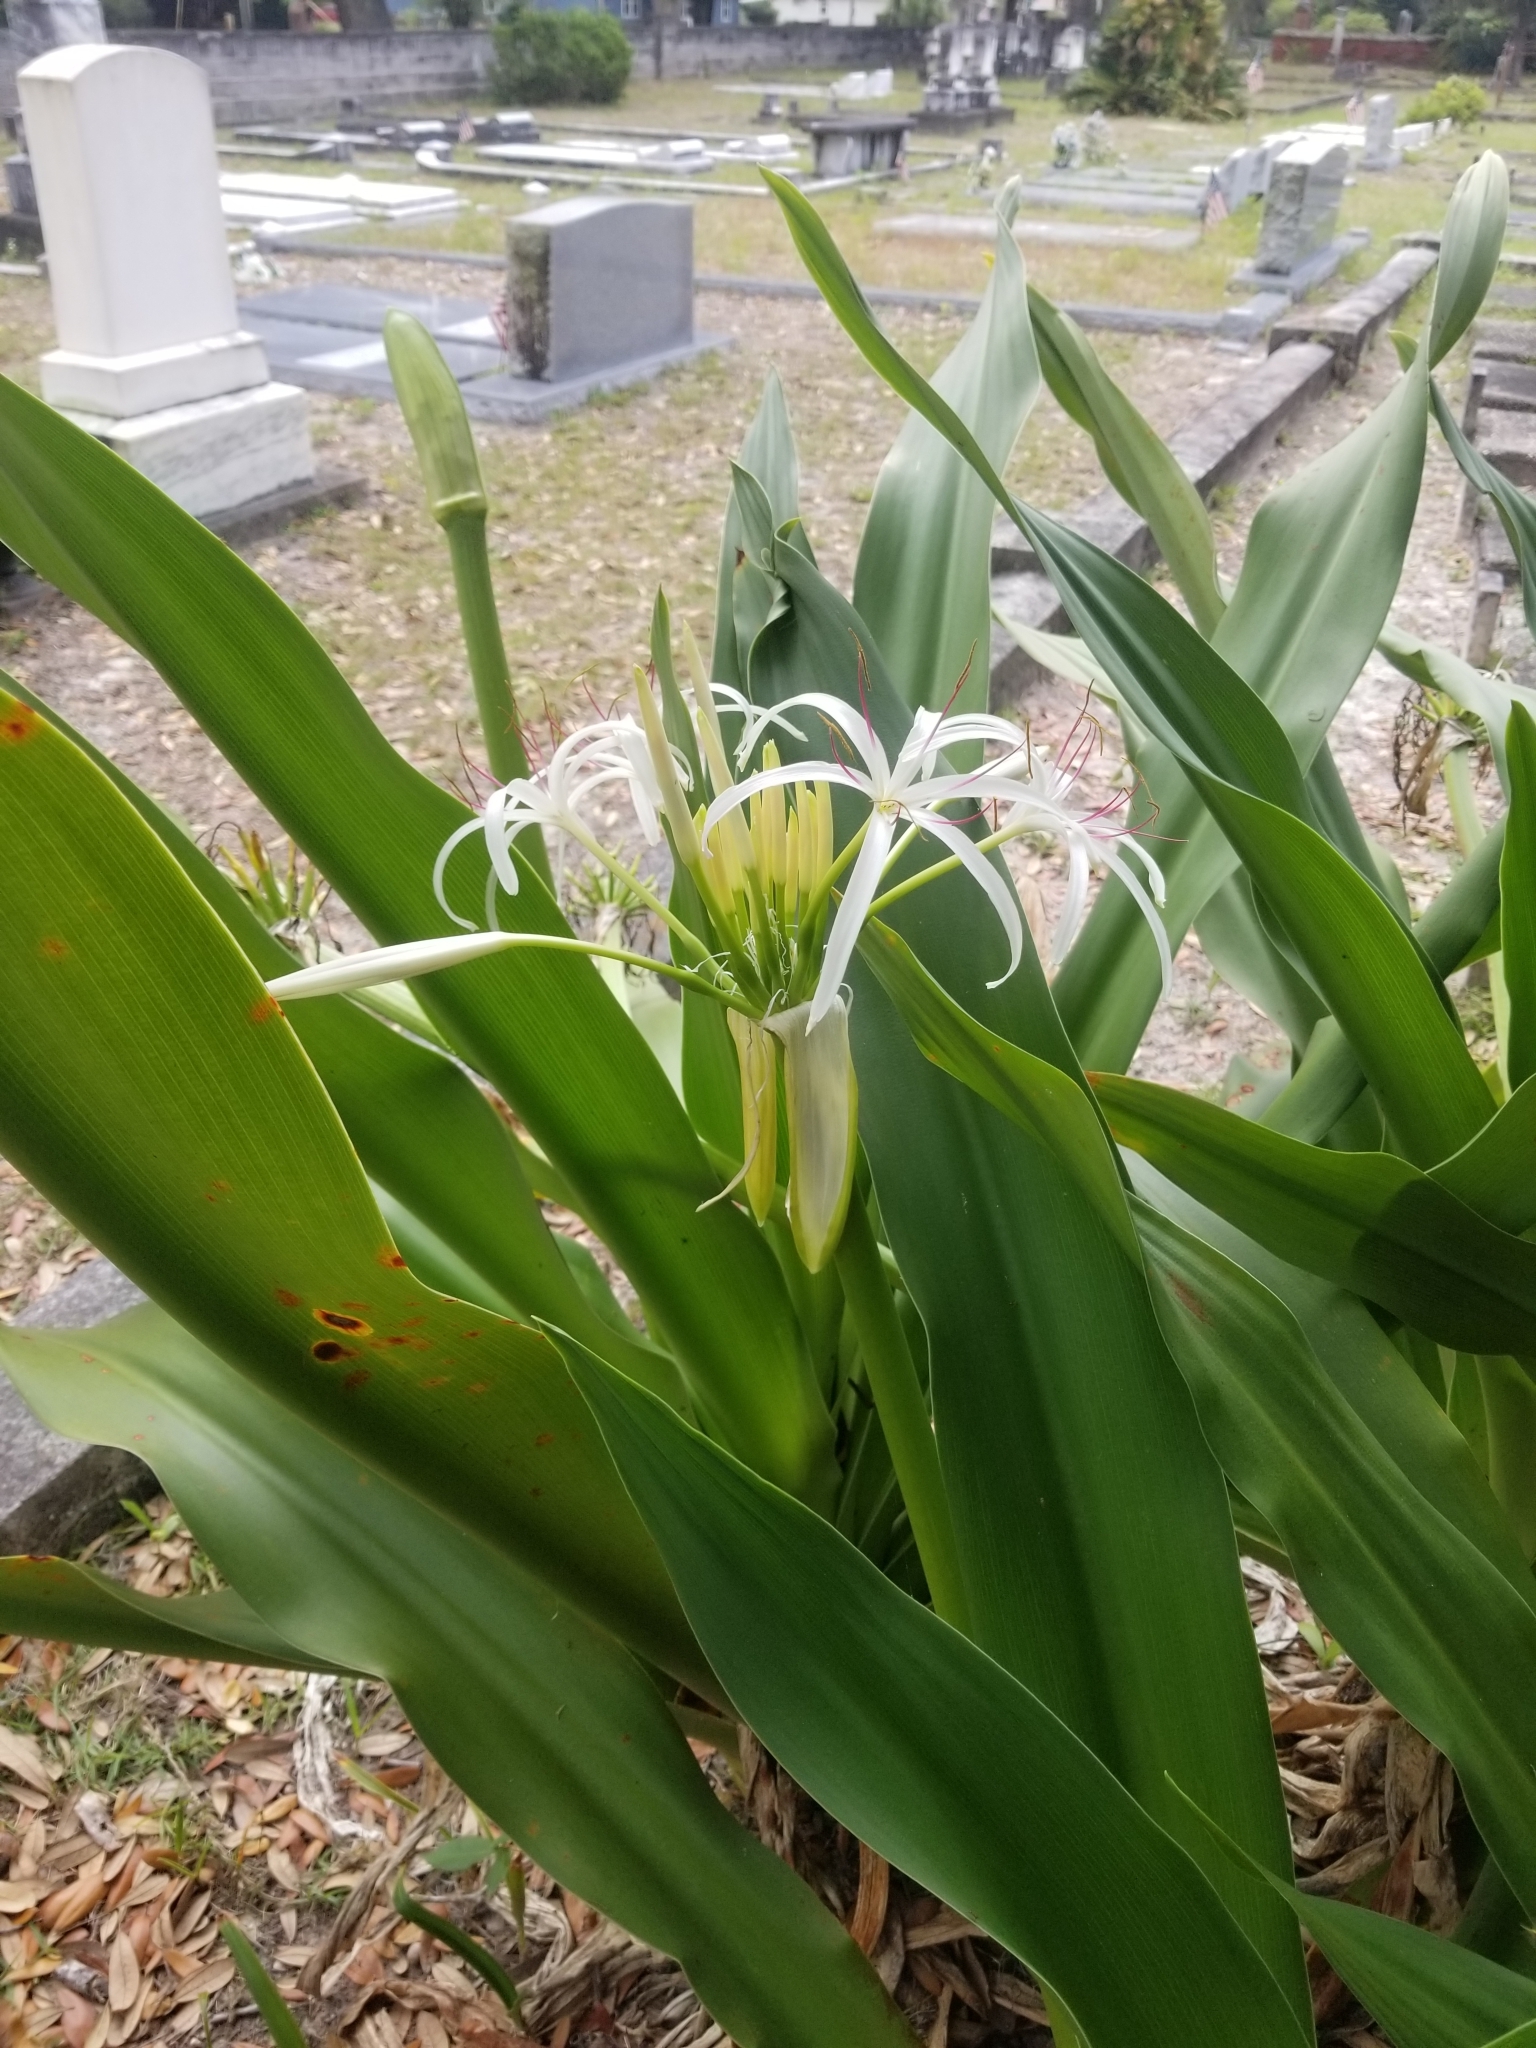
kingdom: Plantae
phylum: Tracheophyta
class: Liliopsida
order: Asparagales
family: Amaryllidaceae
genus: Crinum
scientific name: Crinum asiaticum
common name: Poisonbulb
